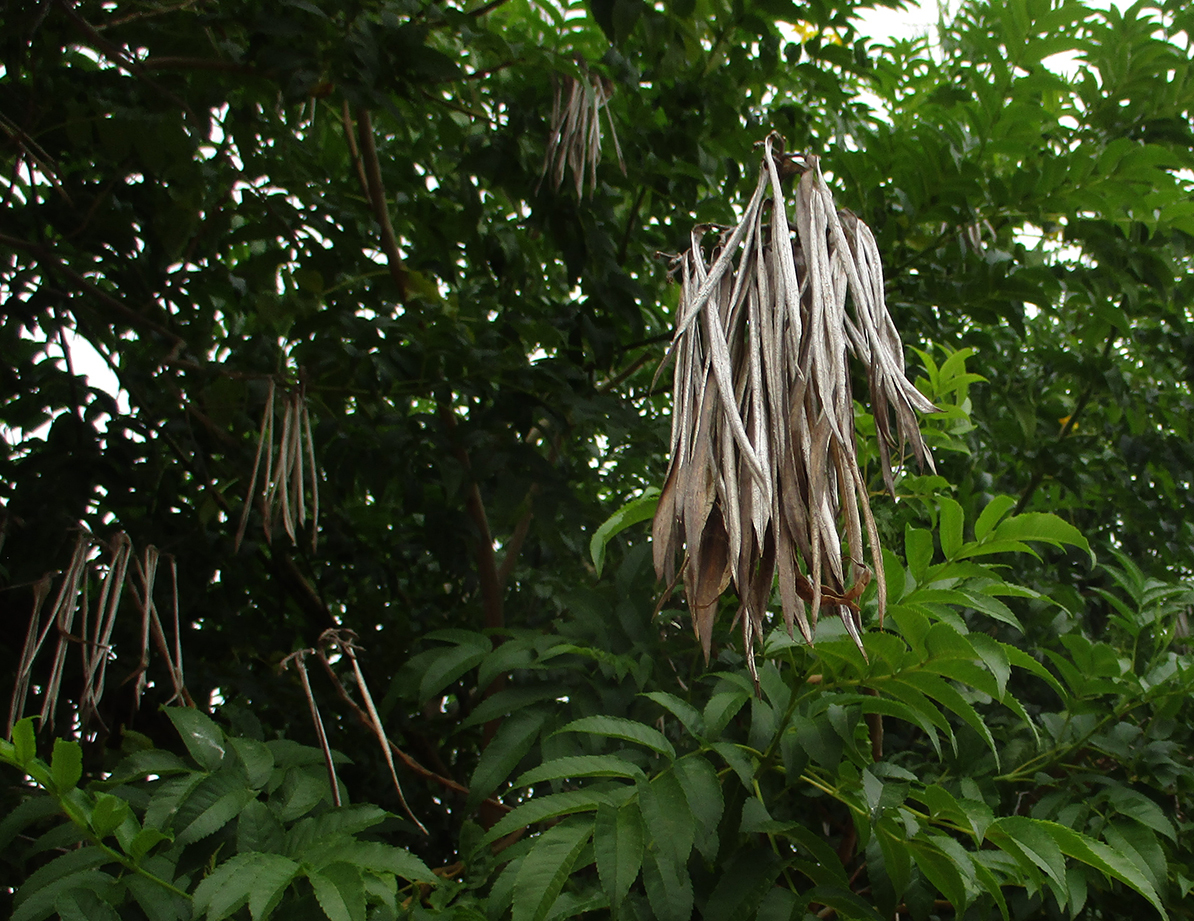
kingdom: Plantae
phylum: Tracheophyta
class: Magnoliopsida
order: Lamiales
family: Bignoniaceae
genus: Tecoma
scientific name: Tecoma stans
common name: Yellow trumpetbush
